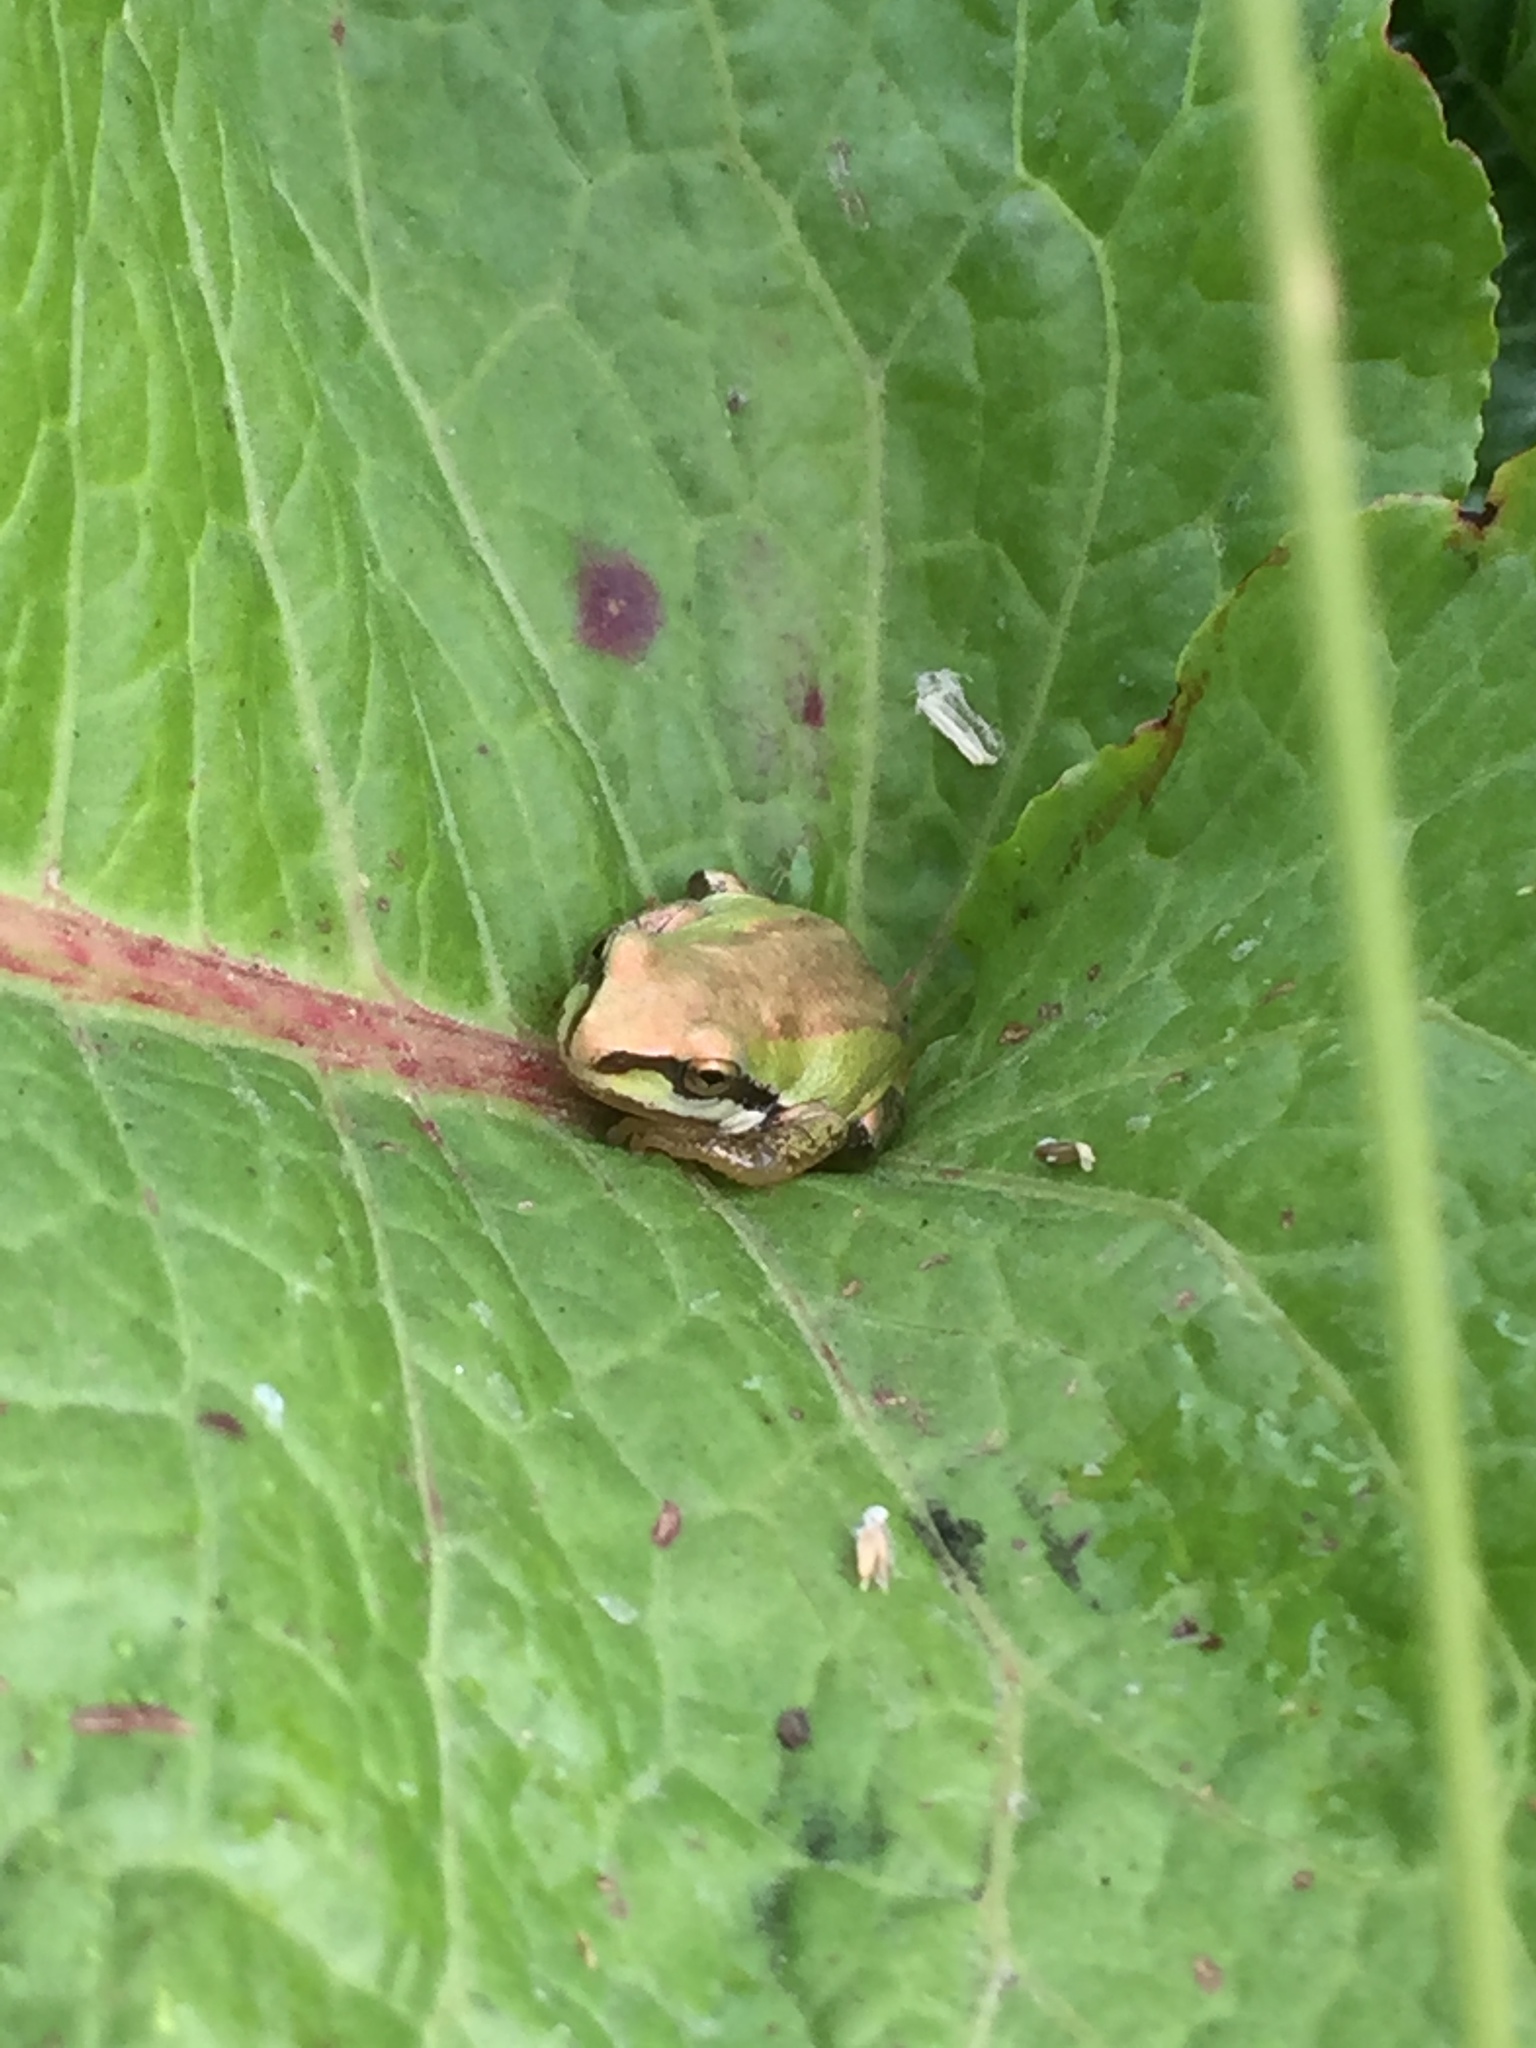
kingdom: Animalia
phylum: Chordata
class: Amphibia
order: Anura
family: Hylidae
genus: Pseudacris
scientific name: Pseudacris regilla
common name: Pacific chorus frog
